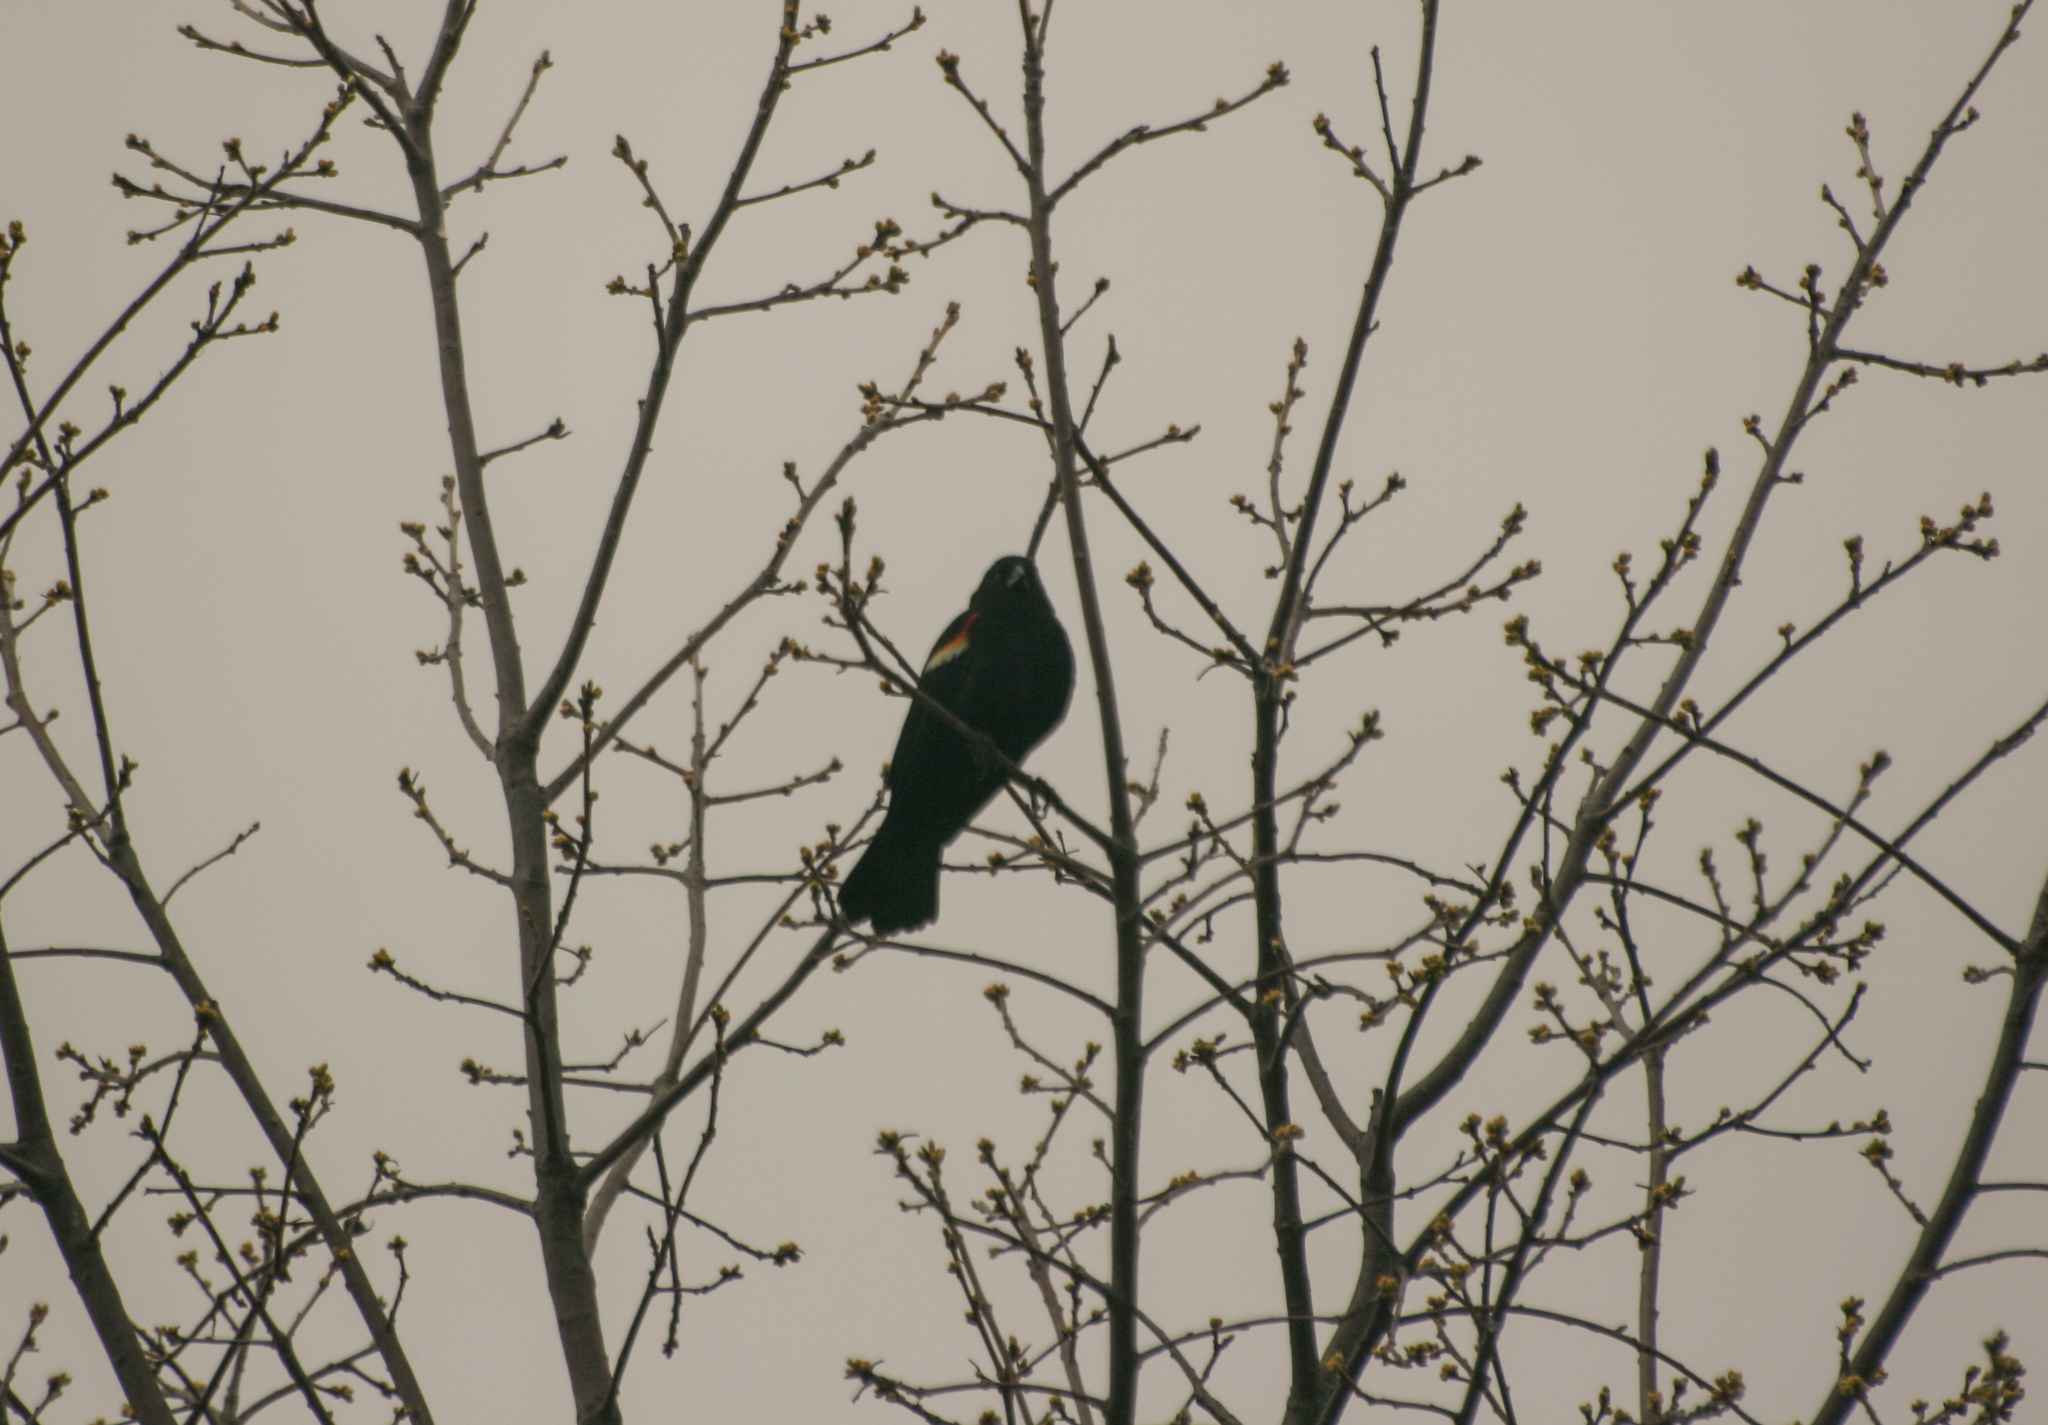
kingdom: Animalia
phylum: Chordata
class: Aves
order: Passeriformes
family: Icteridae
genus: Agelaius
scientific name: Agelaius phoeniceus
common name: Red-winged blackbird
